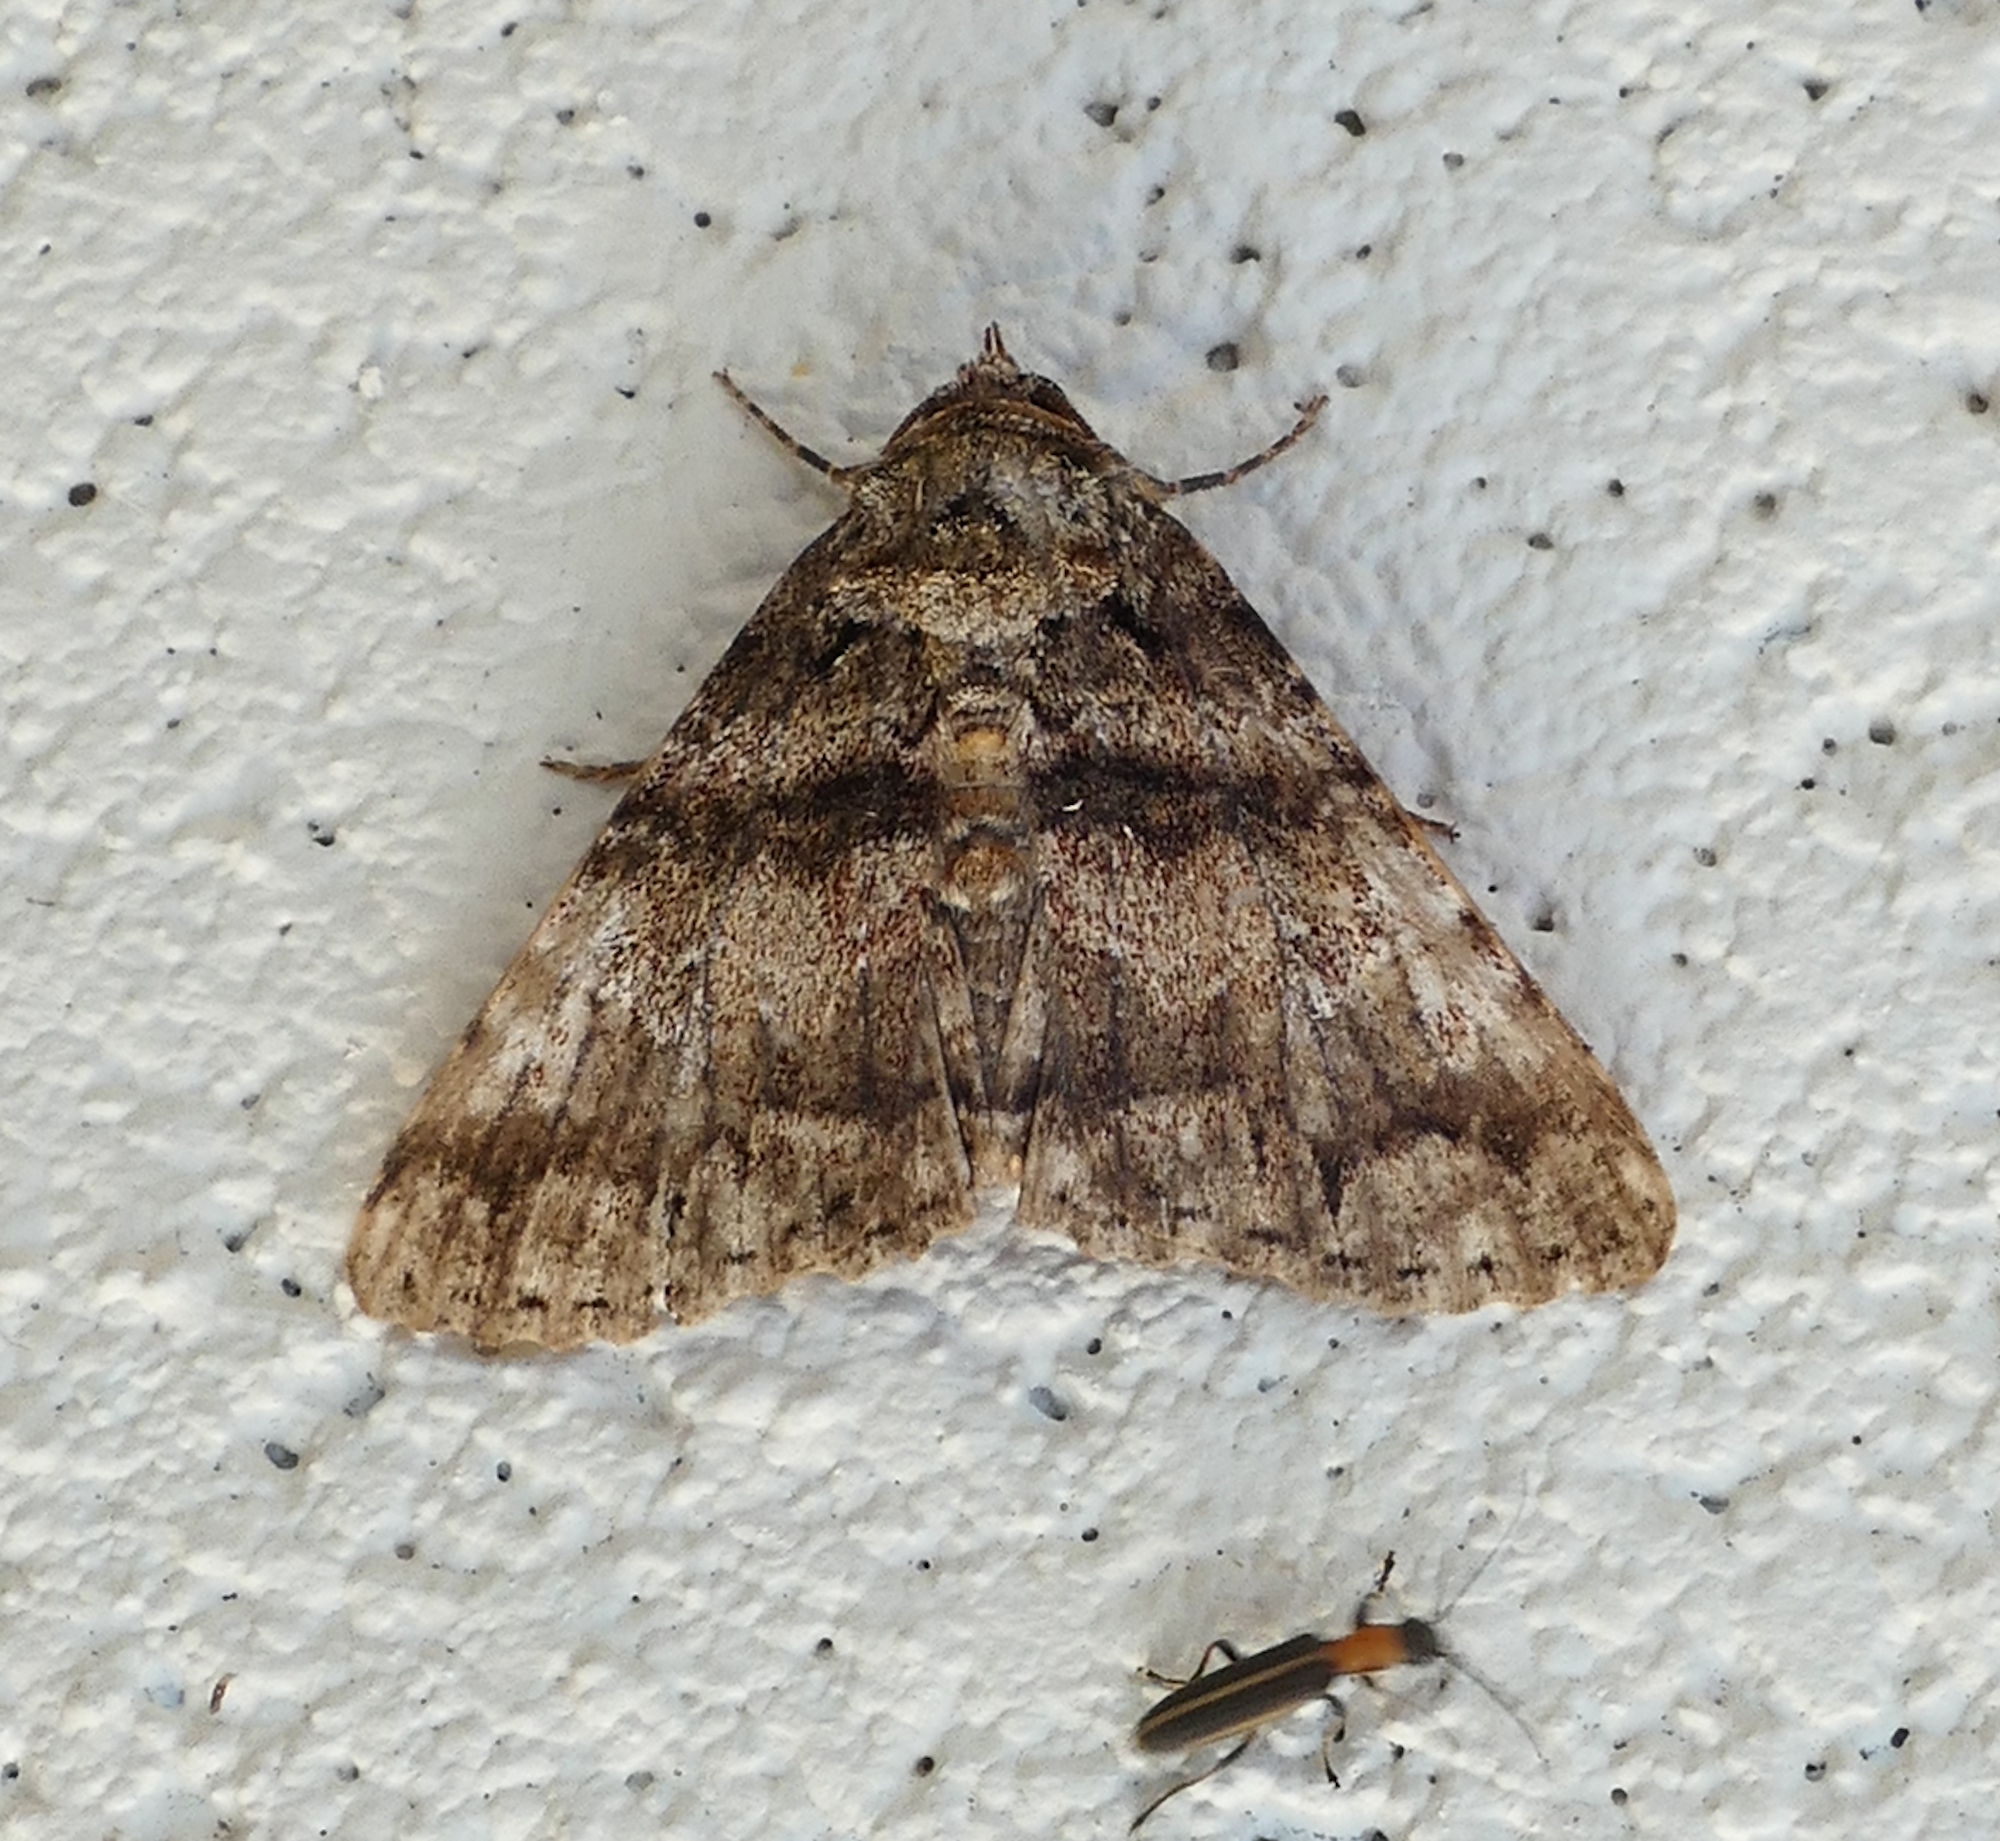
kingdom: Animalia
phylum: Arthropoda
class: Insecta
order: Lepidoptera
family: Erebidae
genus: Metria
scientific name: Metria amella
